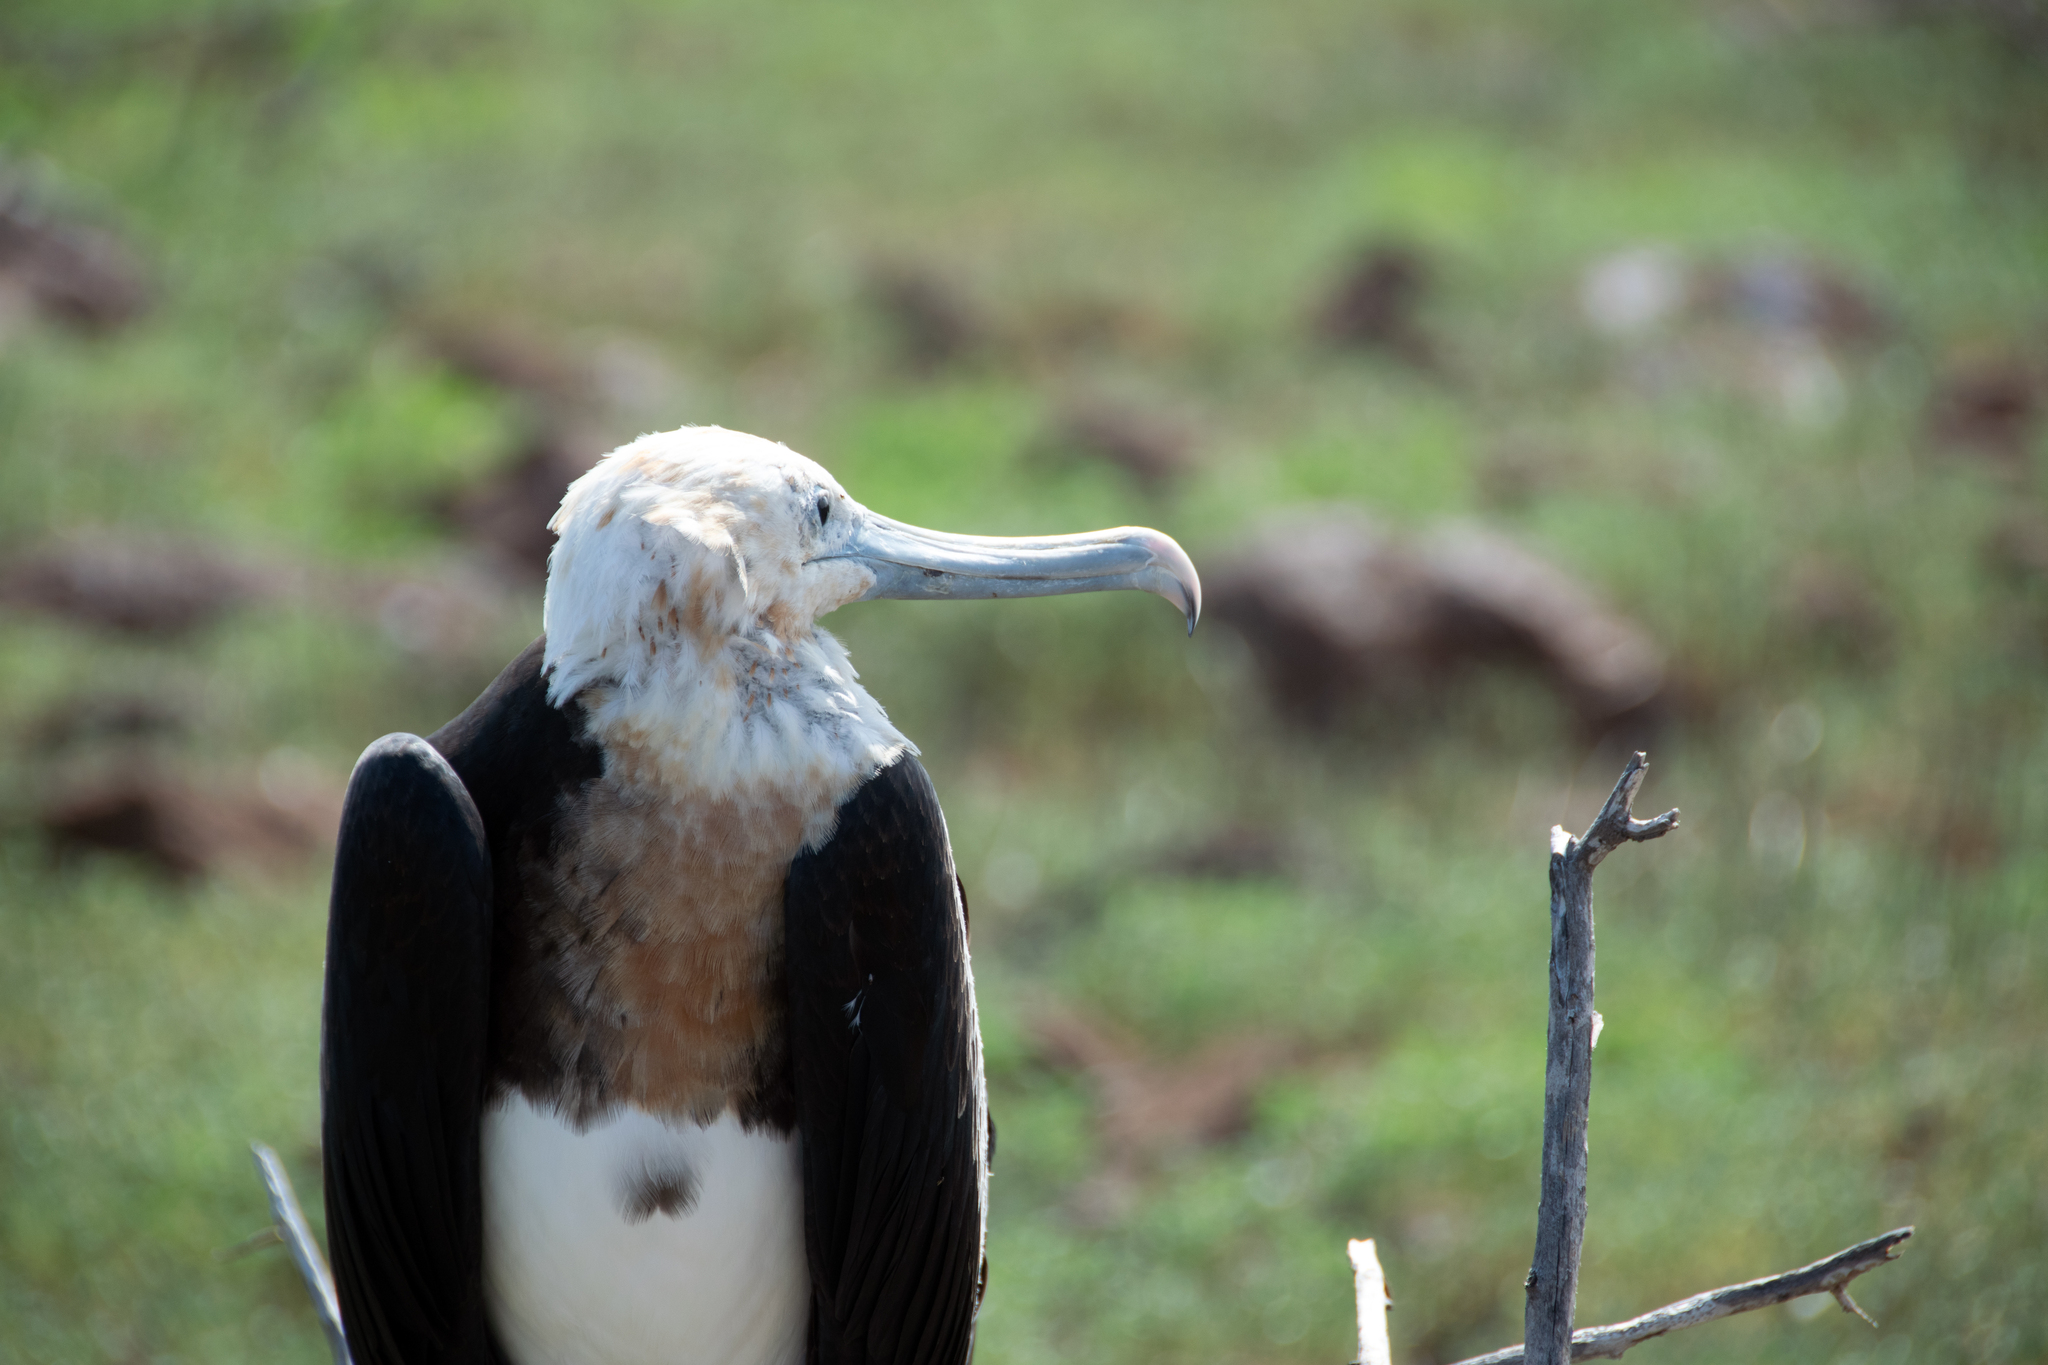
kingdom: Animalia
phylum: Chordata
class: Aves
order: Suliformes
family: Fregatidae
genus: Fregata
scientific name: Fregata minor
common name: Great frigatebird
